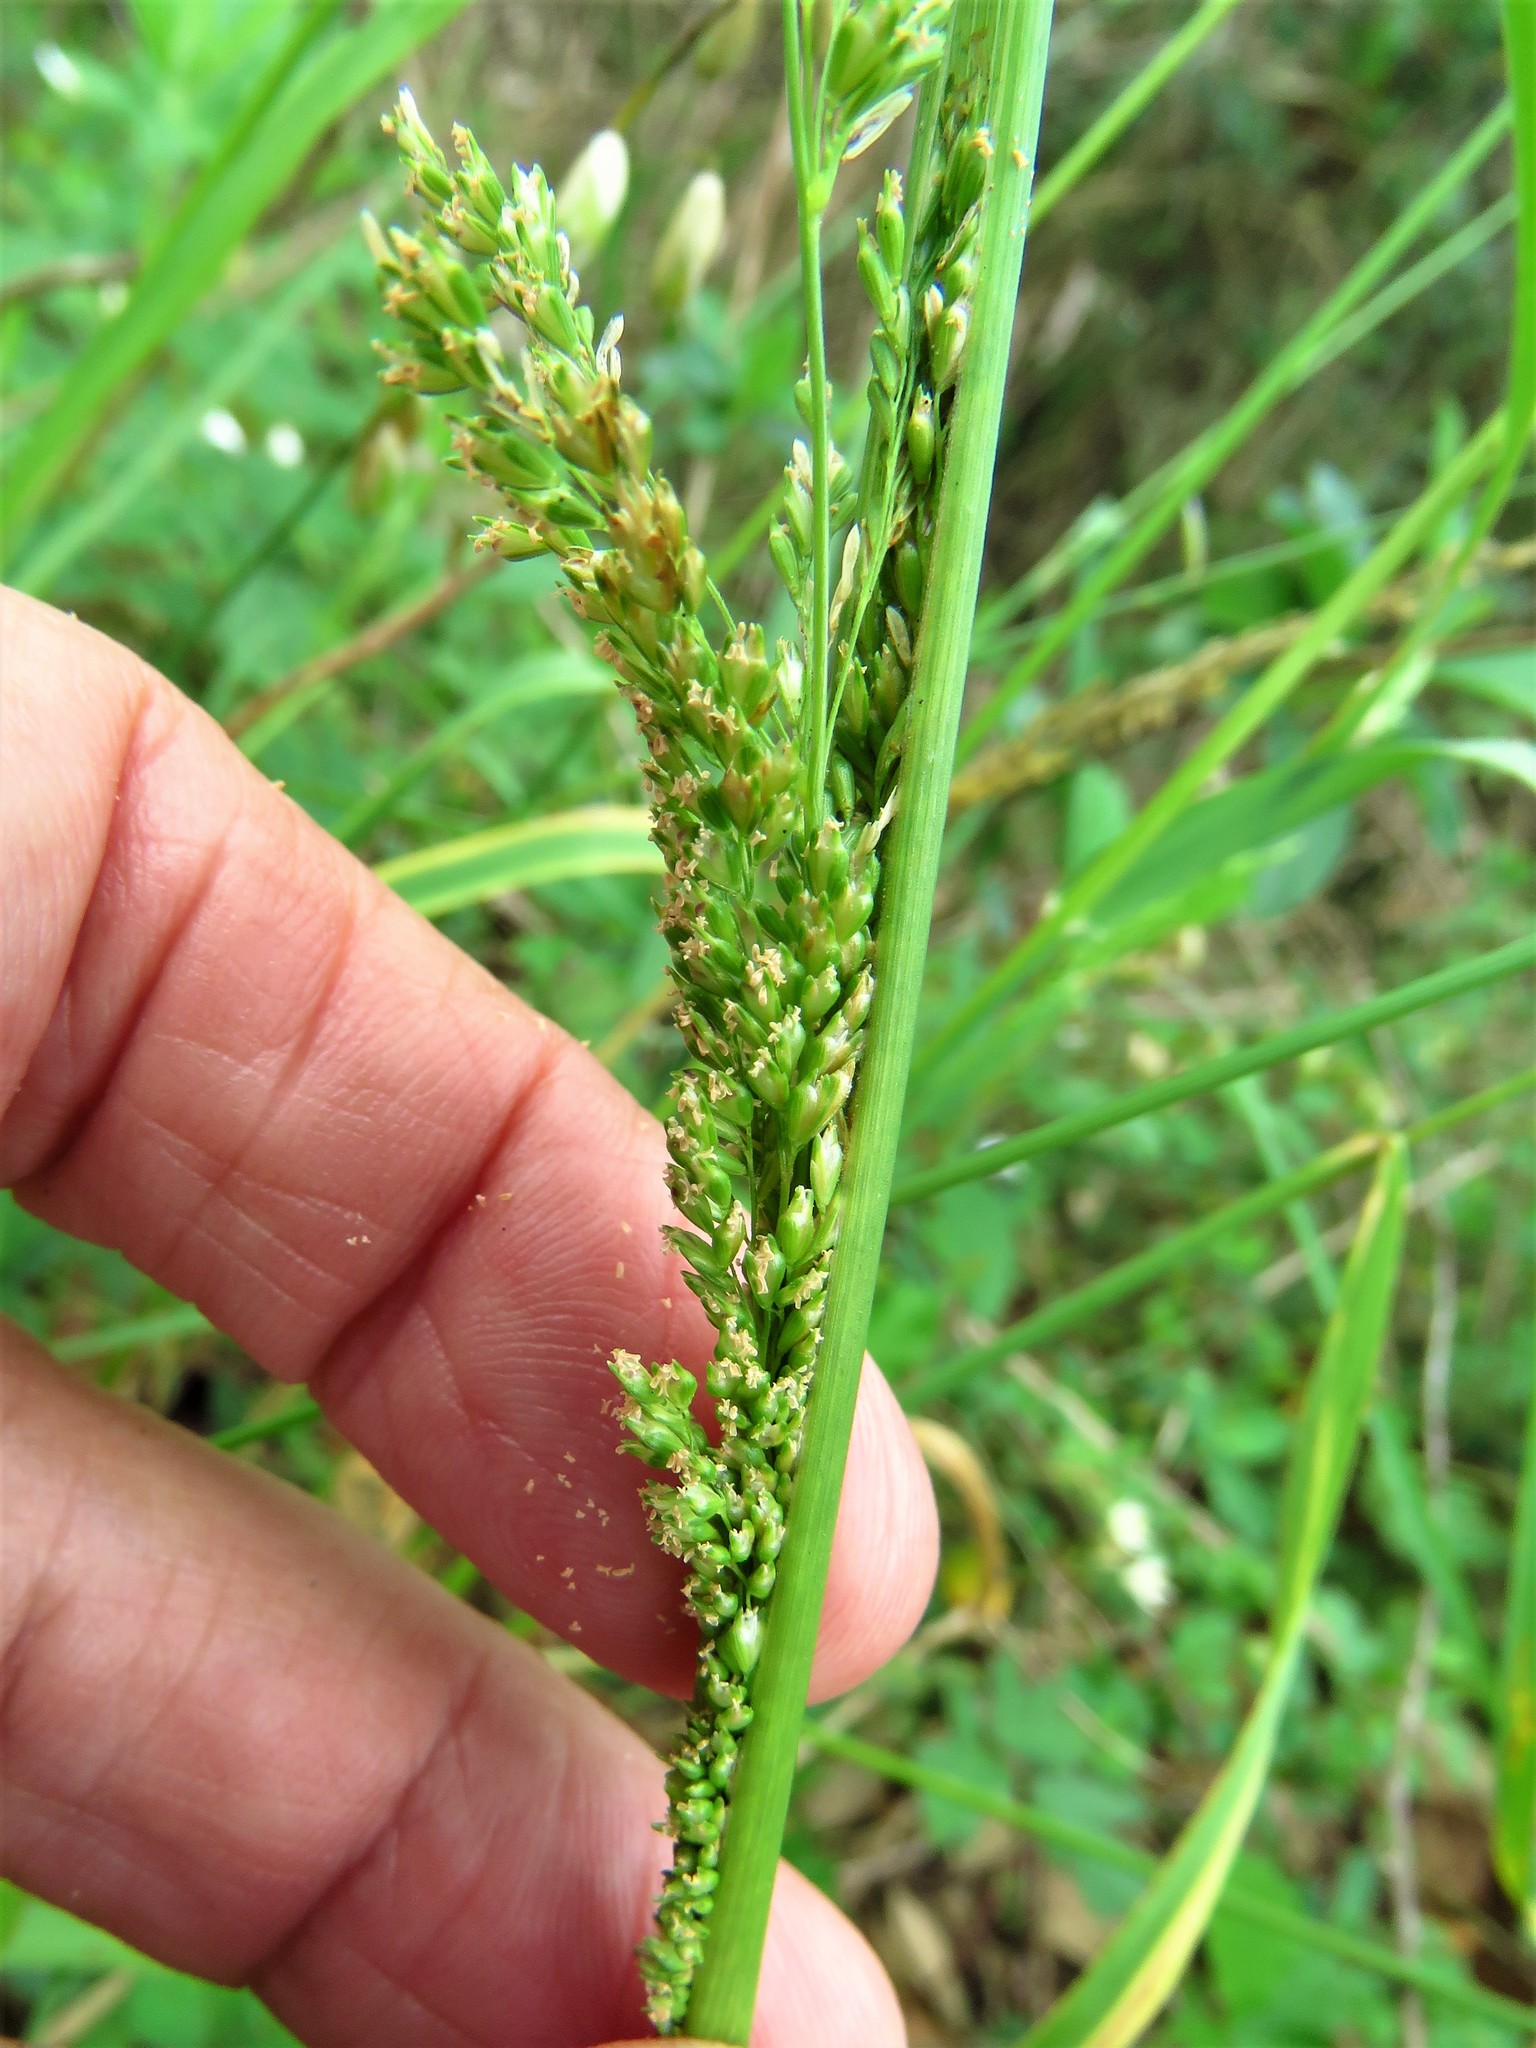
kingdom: Plantae
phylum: Tracheophyta
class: Liliopsida
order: Poales
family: Poaceae
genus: Sphenopholis
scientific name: Sphenopholis obtusata
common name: Prairie grass
